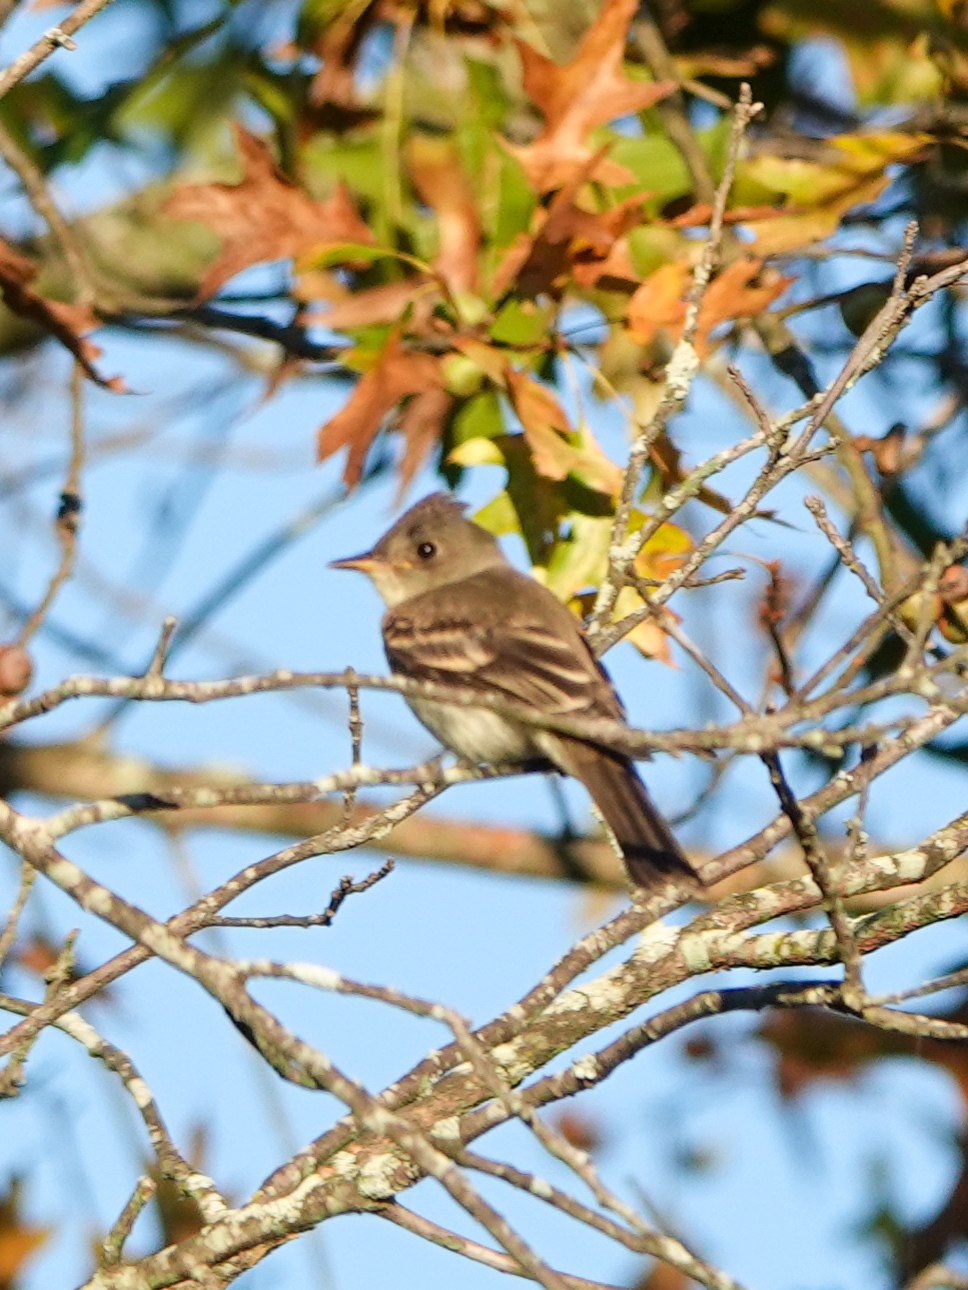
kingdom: Animalia
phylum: Chordata
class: Aves
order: Passeriformes
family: Tyrannidae
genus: Contopus
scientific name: Contopus virens
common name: Eastern wood-pewee
